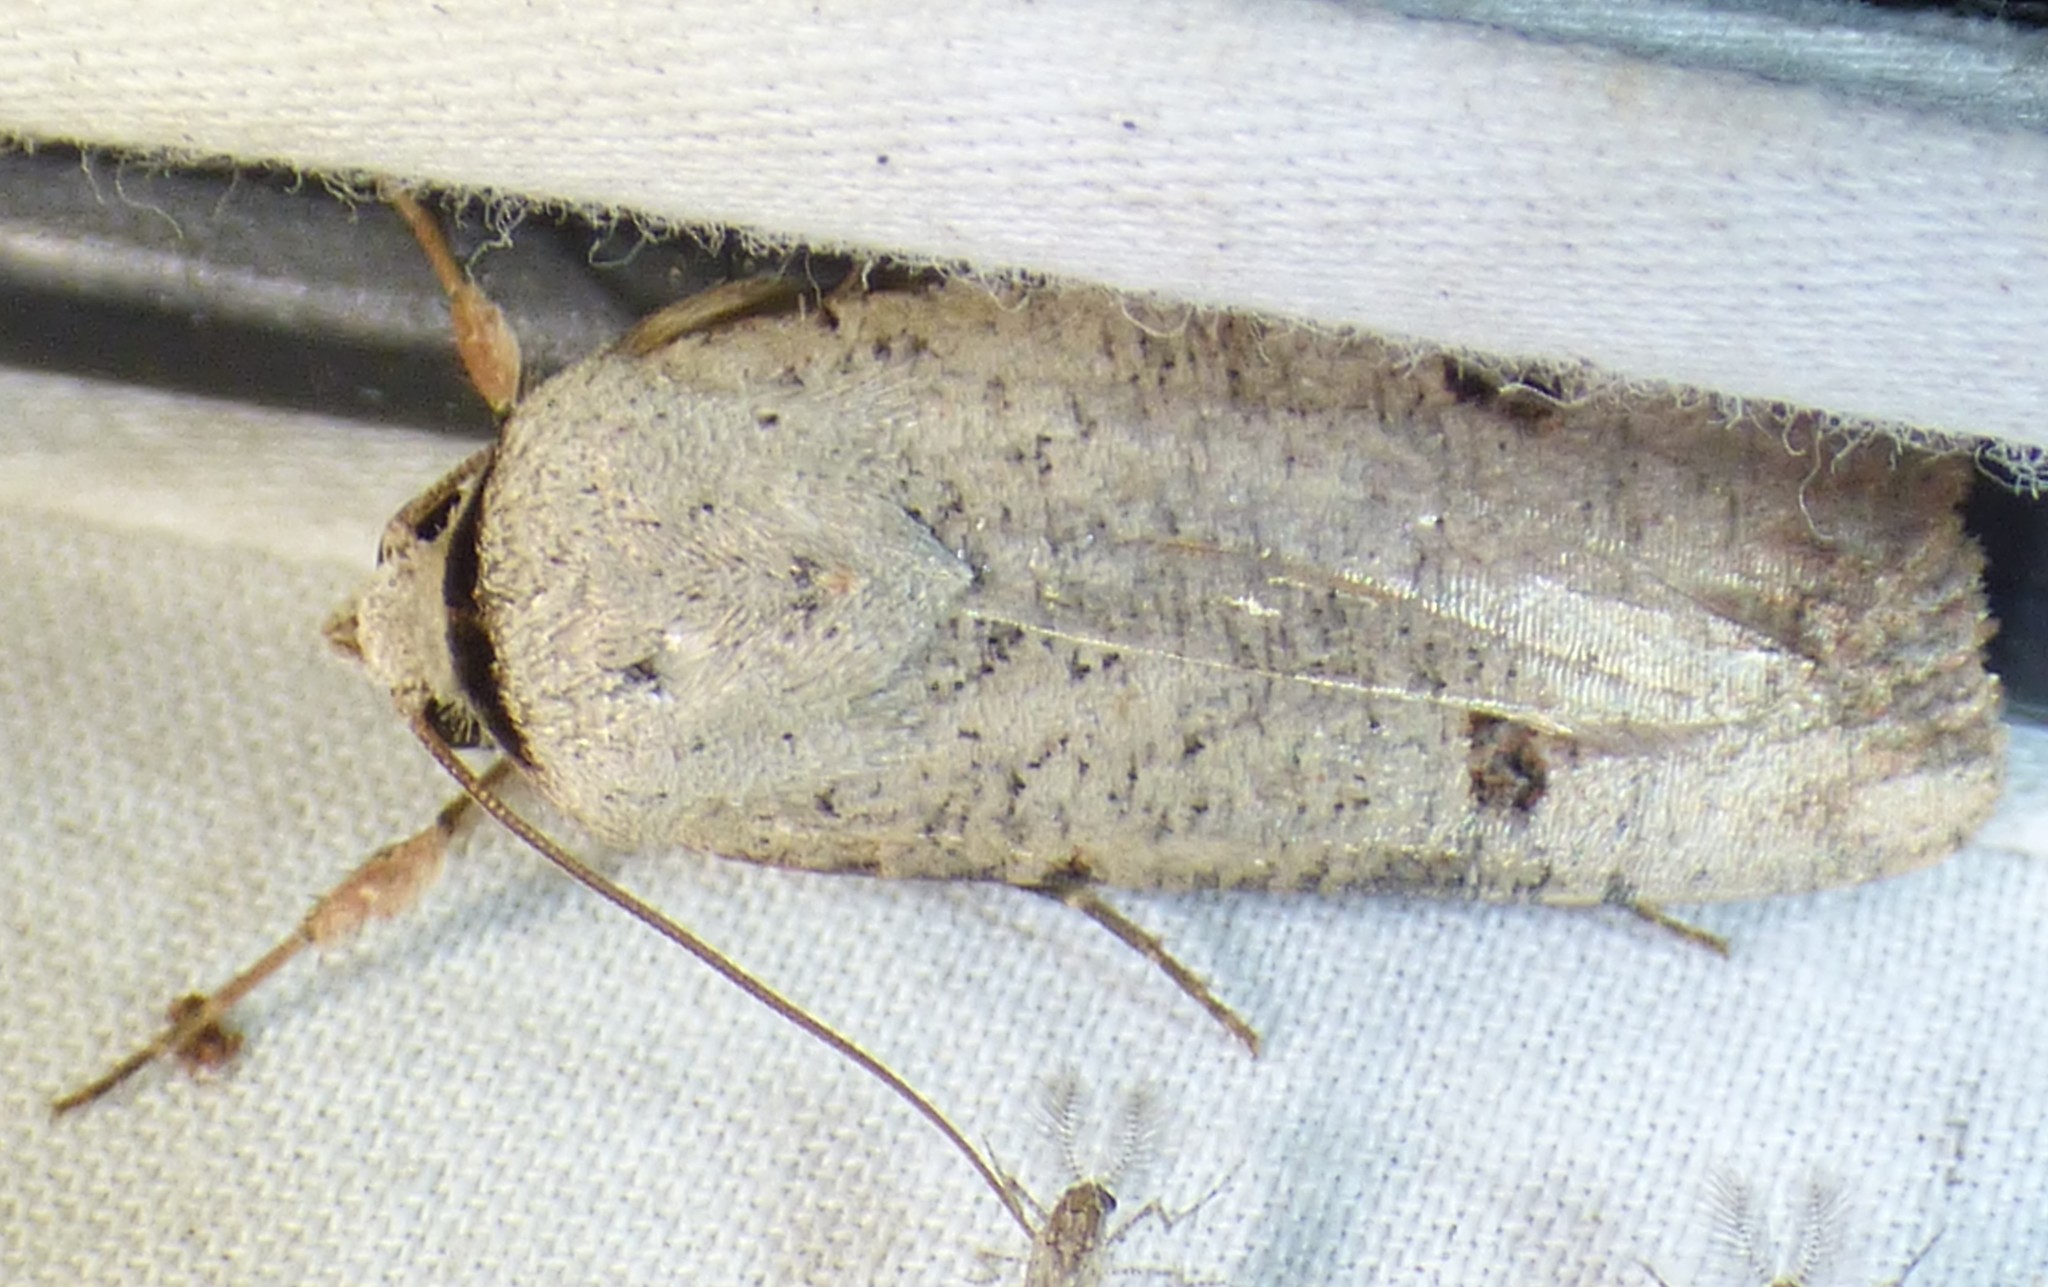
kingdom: Animalia
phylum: Arthropoda
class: Insecta
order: Lepidoptera
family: Noctuidae
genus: Anicla
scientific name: Anicla infecta
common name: Green cutworm
